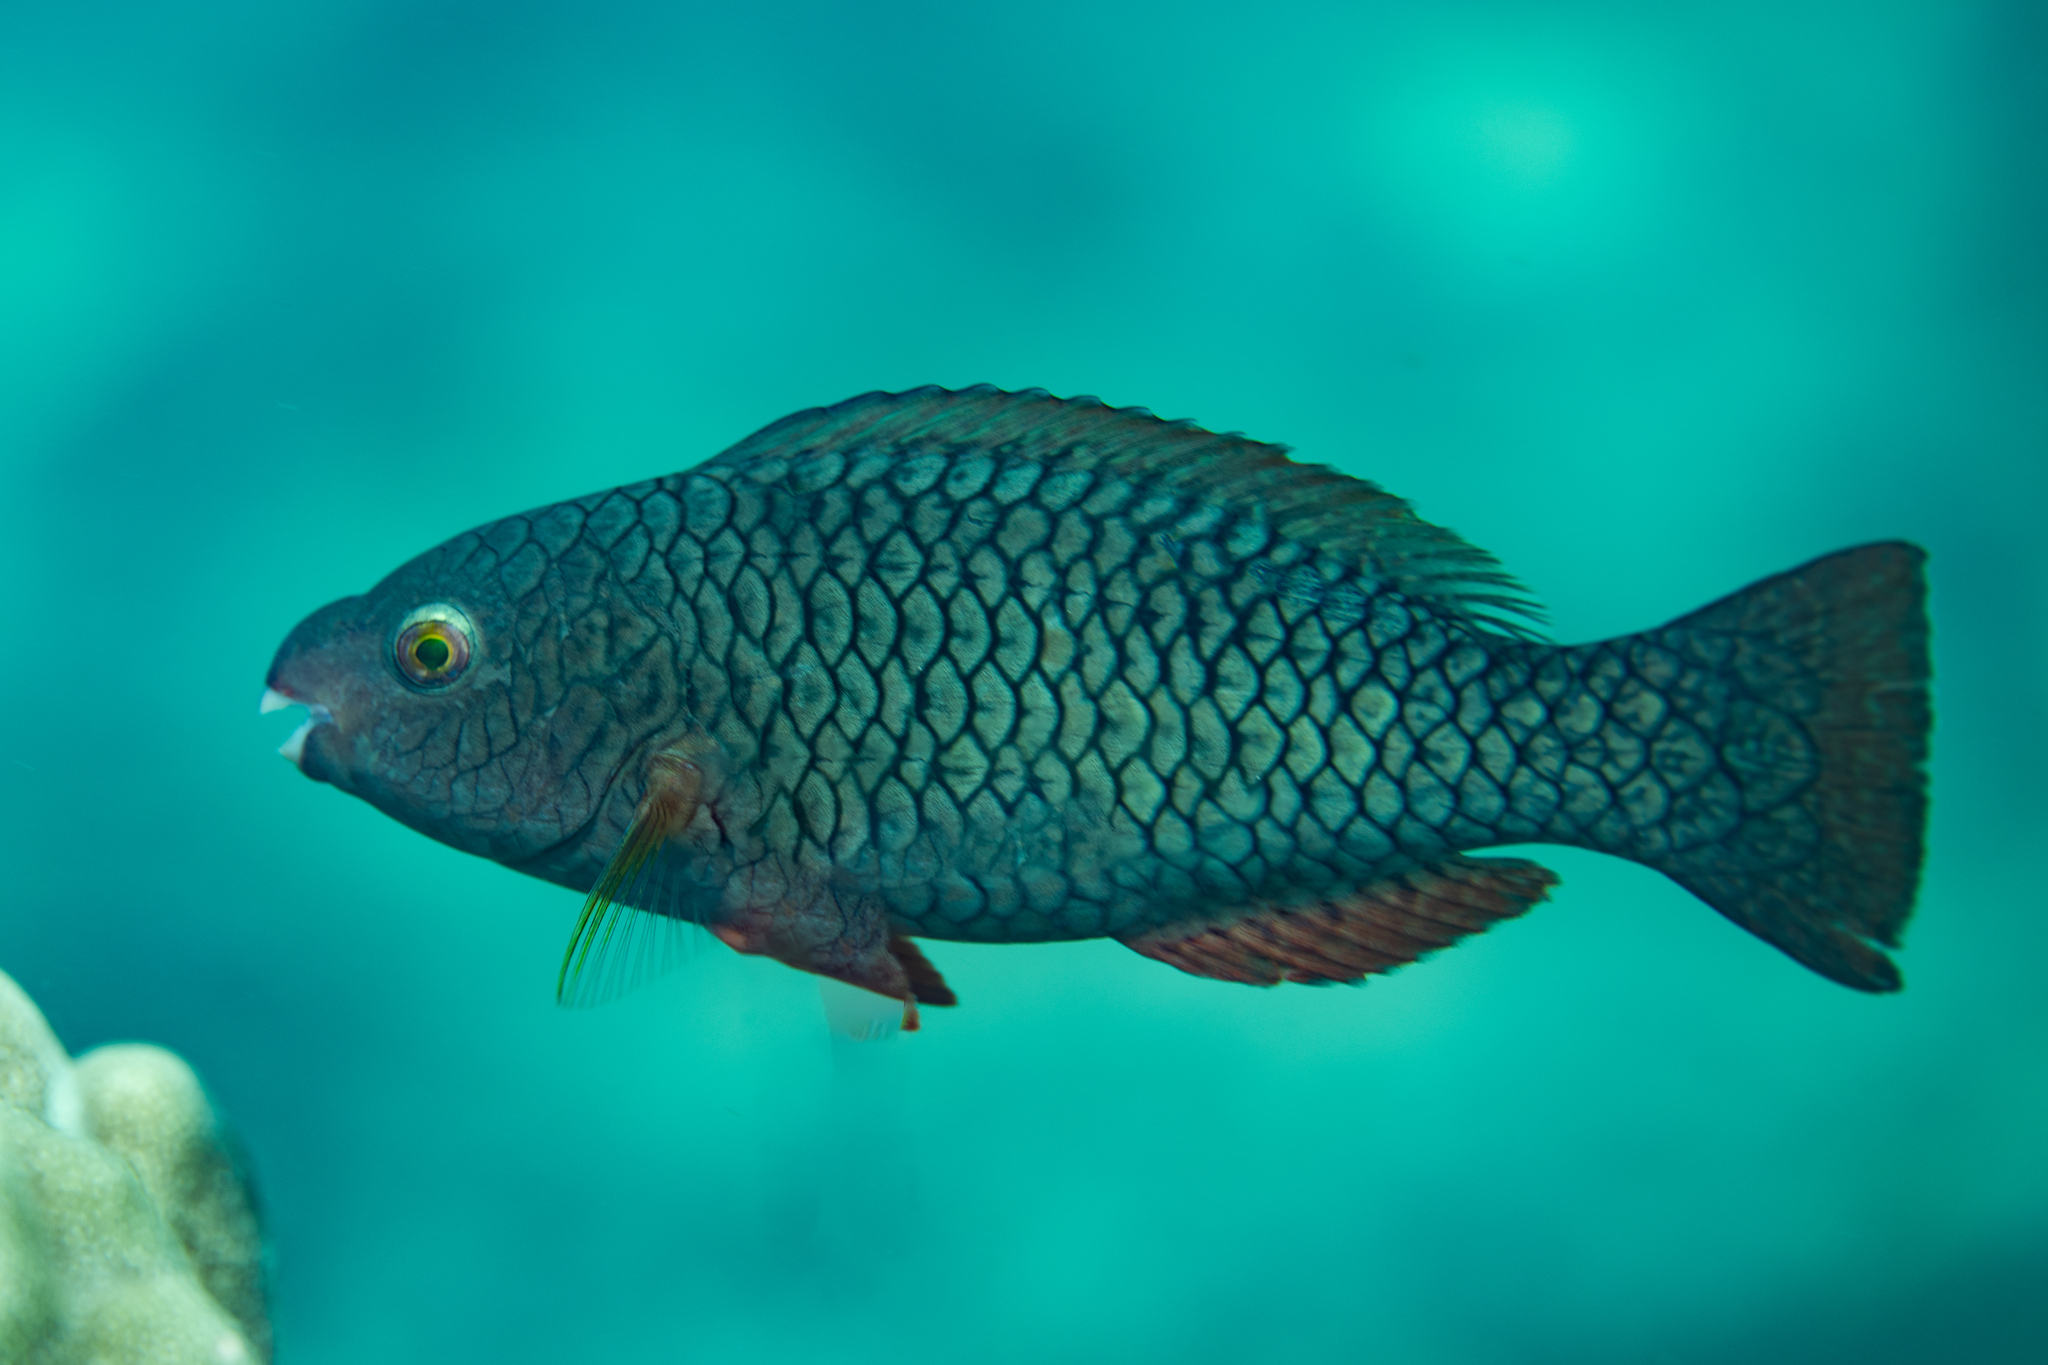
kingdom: Animalia
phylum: Chordata
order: Perciformes
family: Scaridae
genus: Scarus
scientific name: Scarus rubroviolaceus
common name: Ember parrotfish
